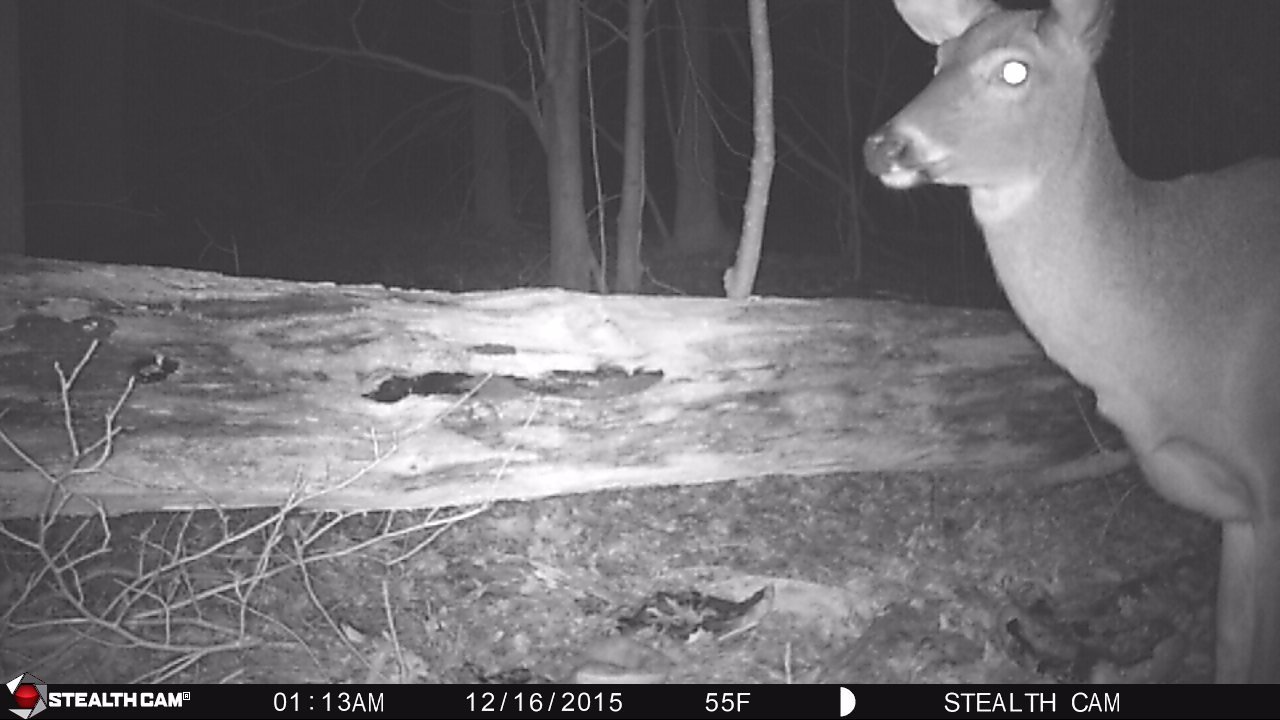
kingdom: Animalia
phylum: Chordata
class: Mammalia
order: Artiodactyla
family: Cervidae
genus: Odocoileus
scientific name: Odocoileus virginianus
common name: White-tailed deer
